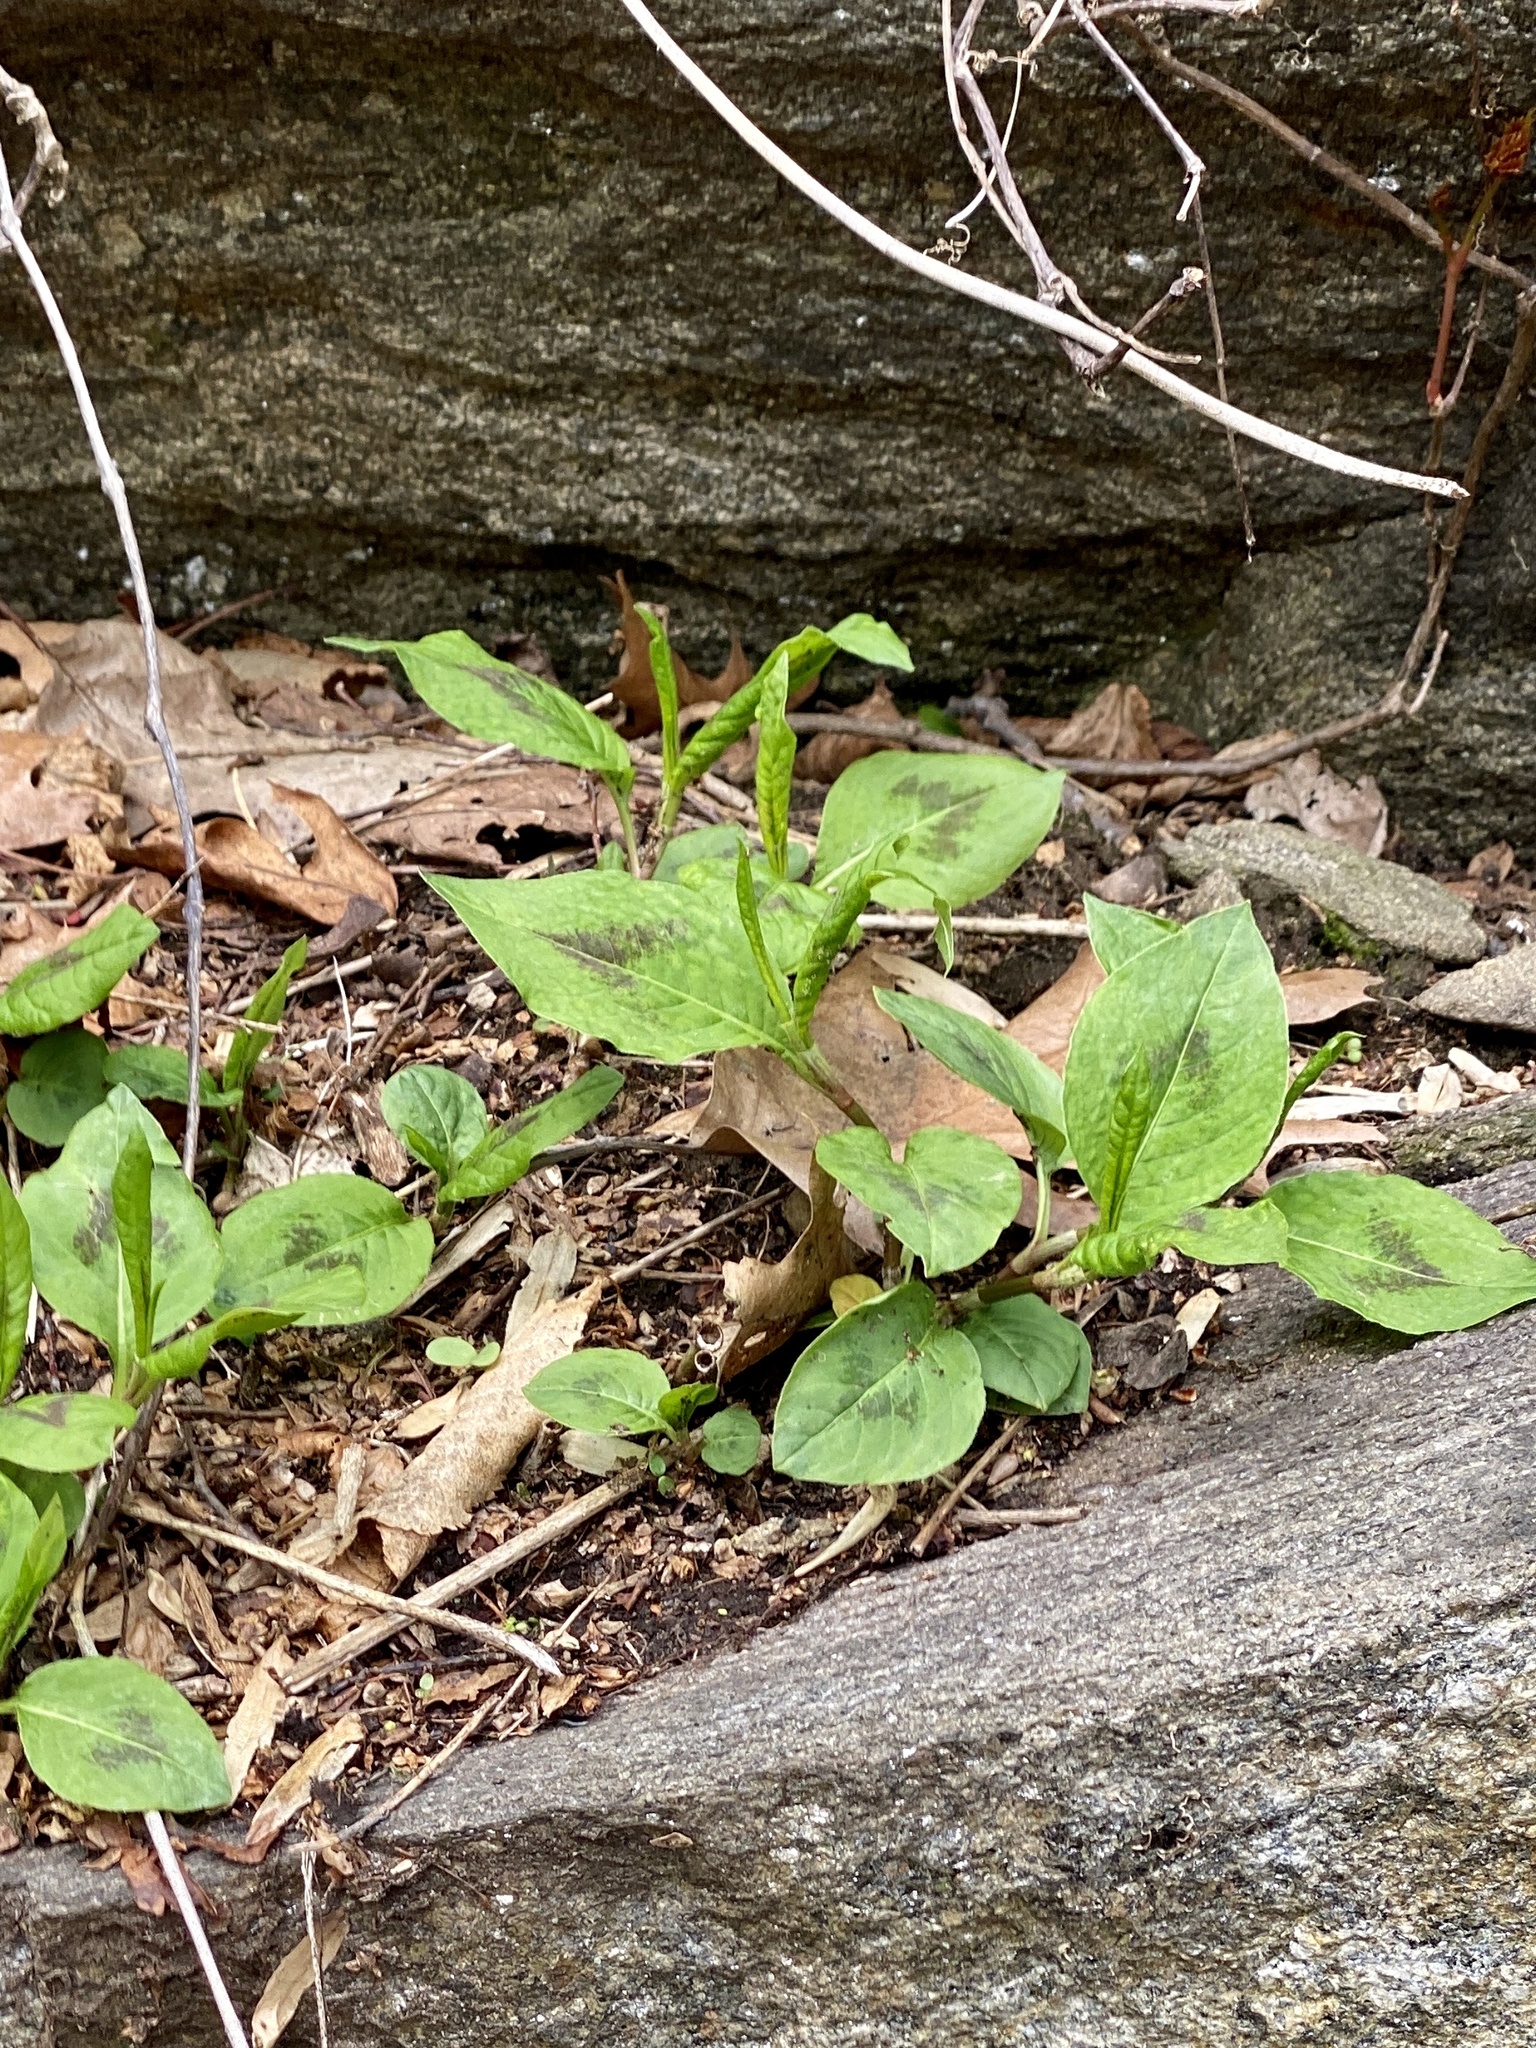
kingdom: Plantae
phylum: Tracheophyta
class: Magnoliopsida
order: Caryophyllales
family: Polygonaceae
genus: Persicaria
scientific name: Persicaria virginiana
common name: Jumpseed
